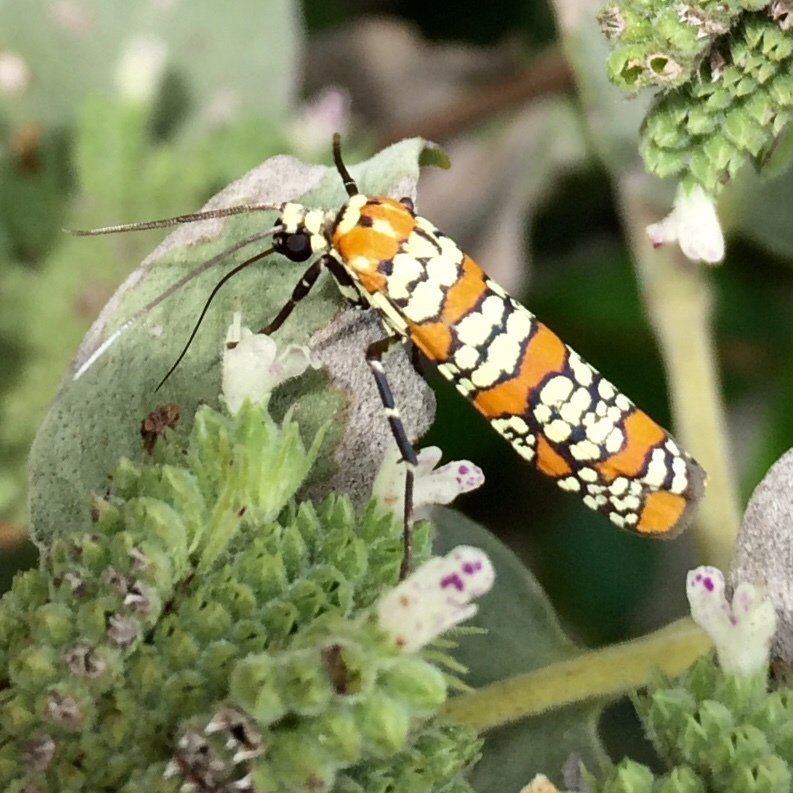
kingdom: Animalia
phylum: Arthropoda
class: Insecta
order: Lepidoptera
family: Attevidae
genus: Atteva
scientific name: Atteva punctella
